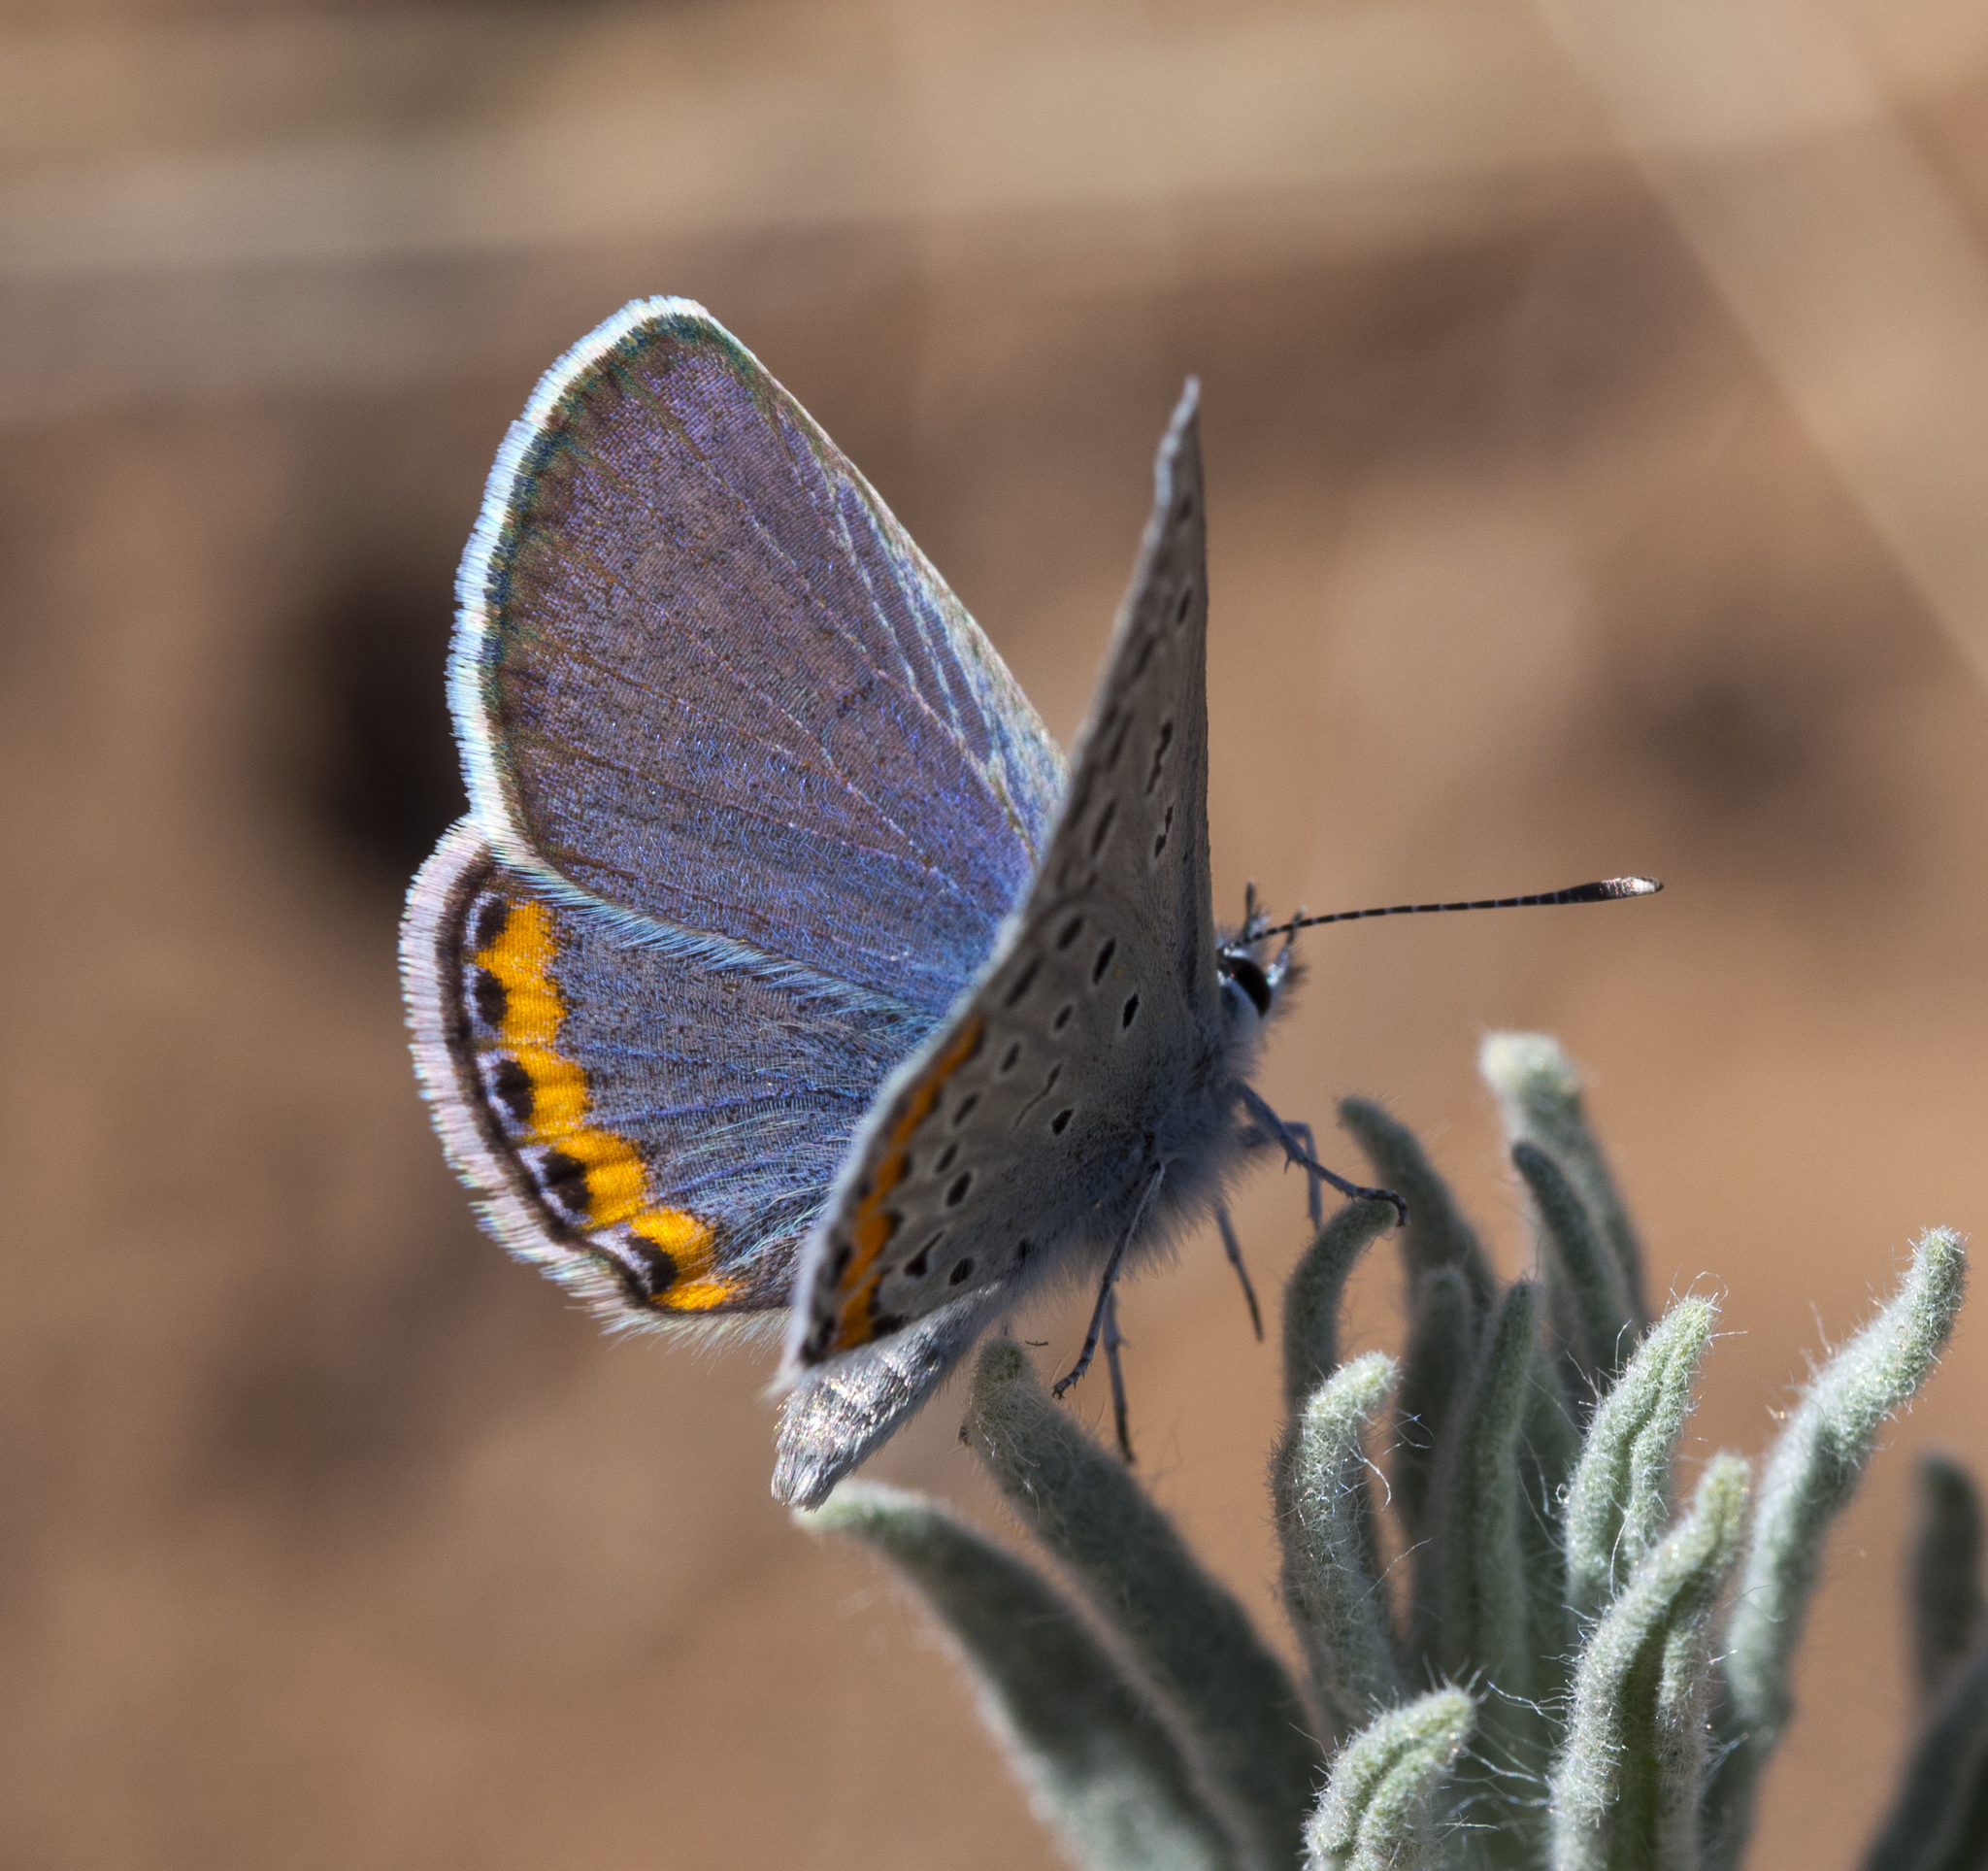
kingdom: Animalia
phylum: Arthropoda
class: Insecta
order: Lepidoptera
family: Lycaenidae
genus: Icaricia
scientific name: Icaricia lupini
